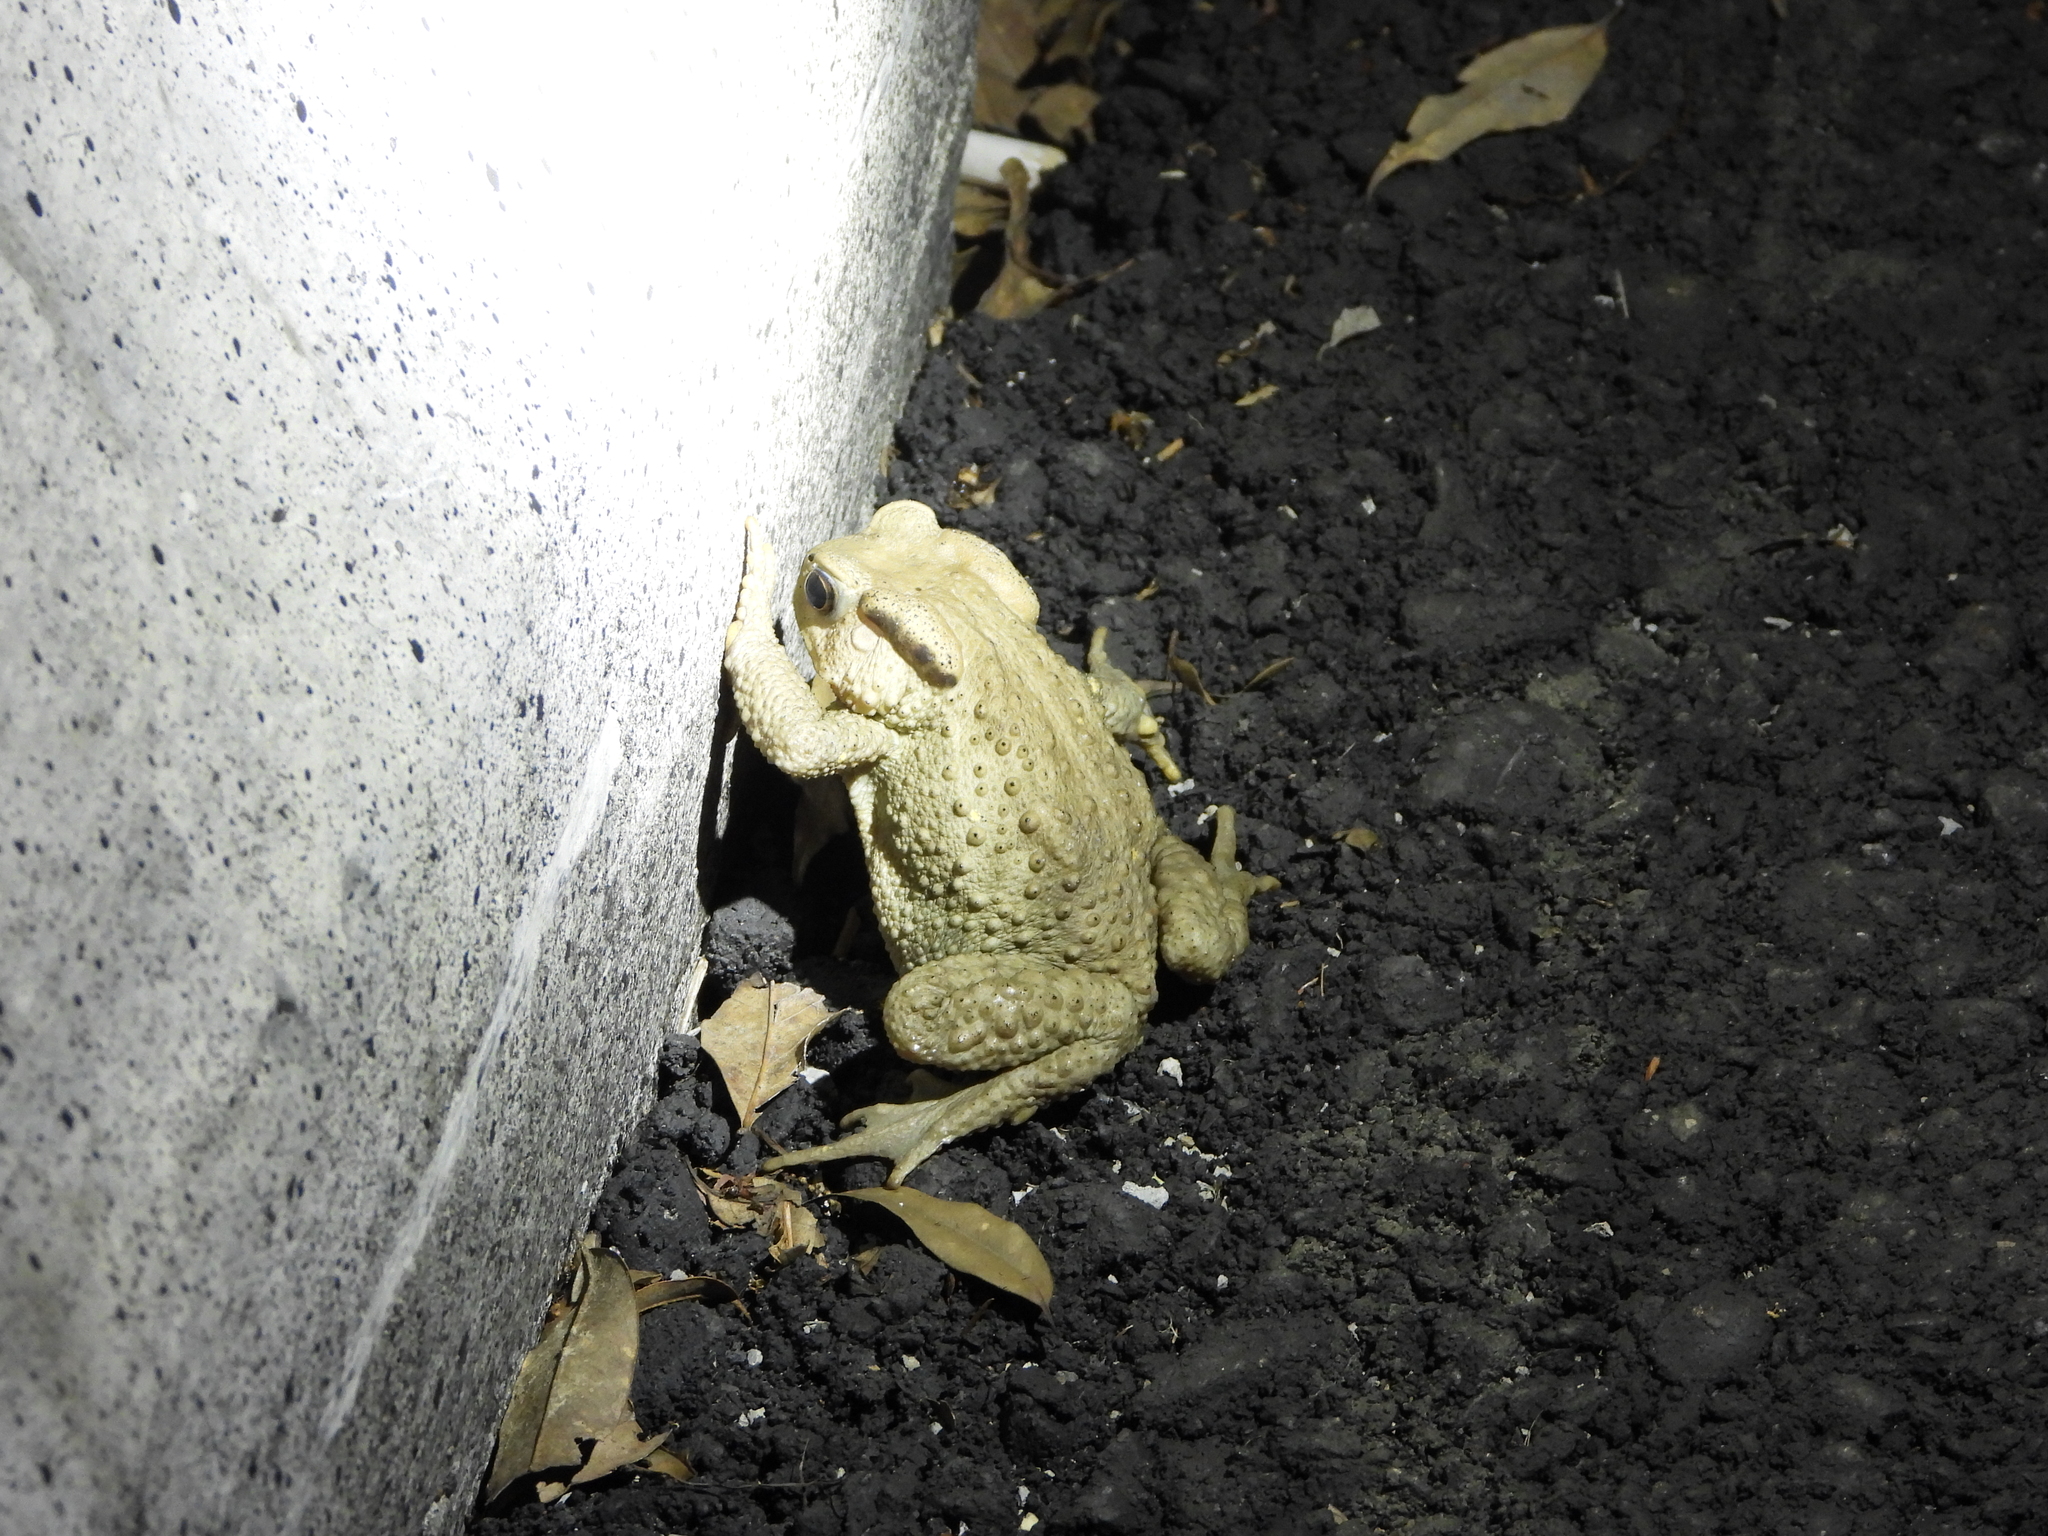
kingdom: Animalia
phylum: Chordata
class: Amphibia
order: Anura
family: Bufonidae
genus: Bufo
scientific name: Bufo bankorensis
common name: Bankor toad
